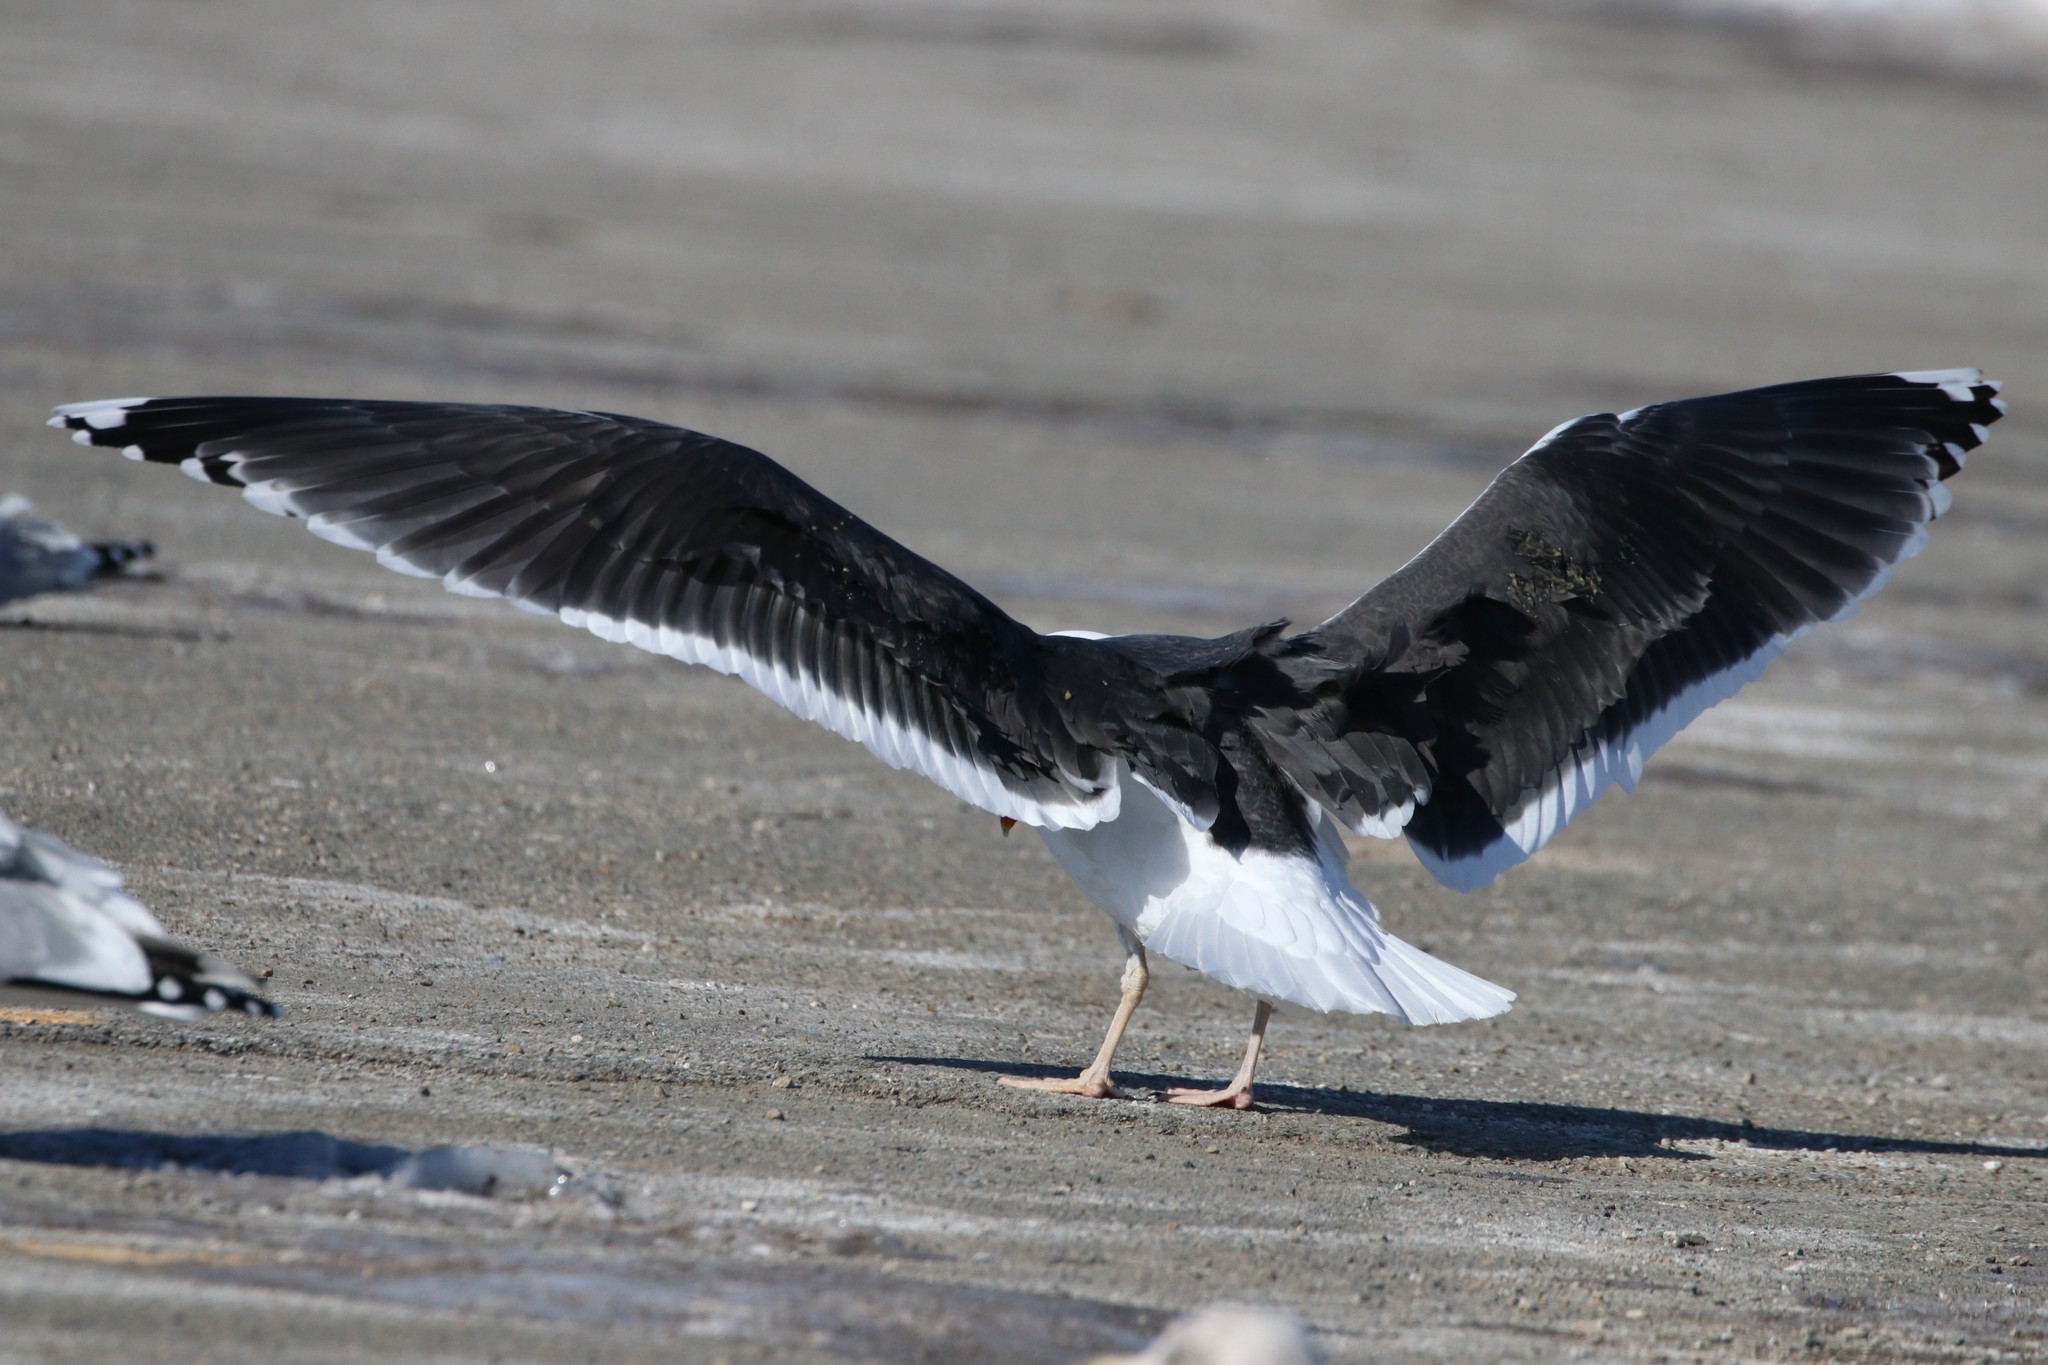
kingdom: Animalia
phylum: Chordata
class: Aves
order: Charadriiformes
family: Laridae
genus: Larus
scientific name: Larus marinus
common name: Great black-backed gull
